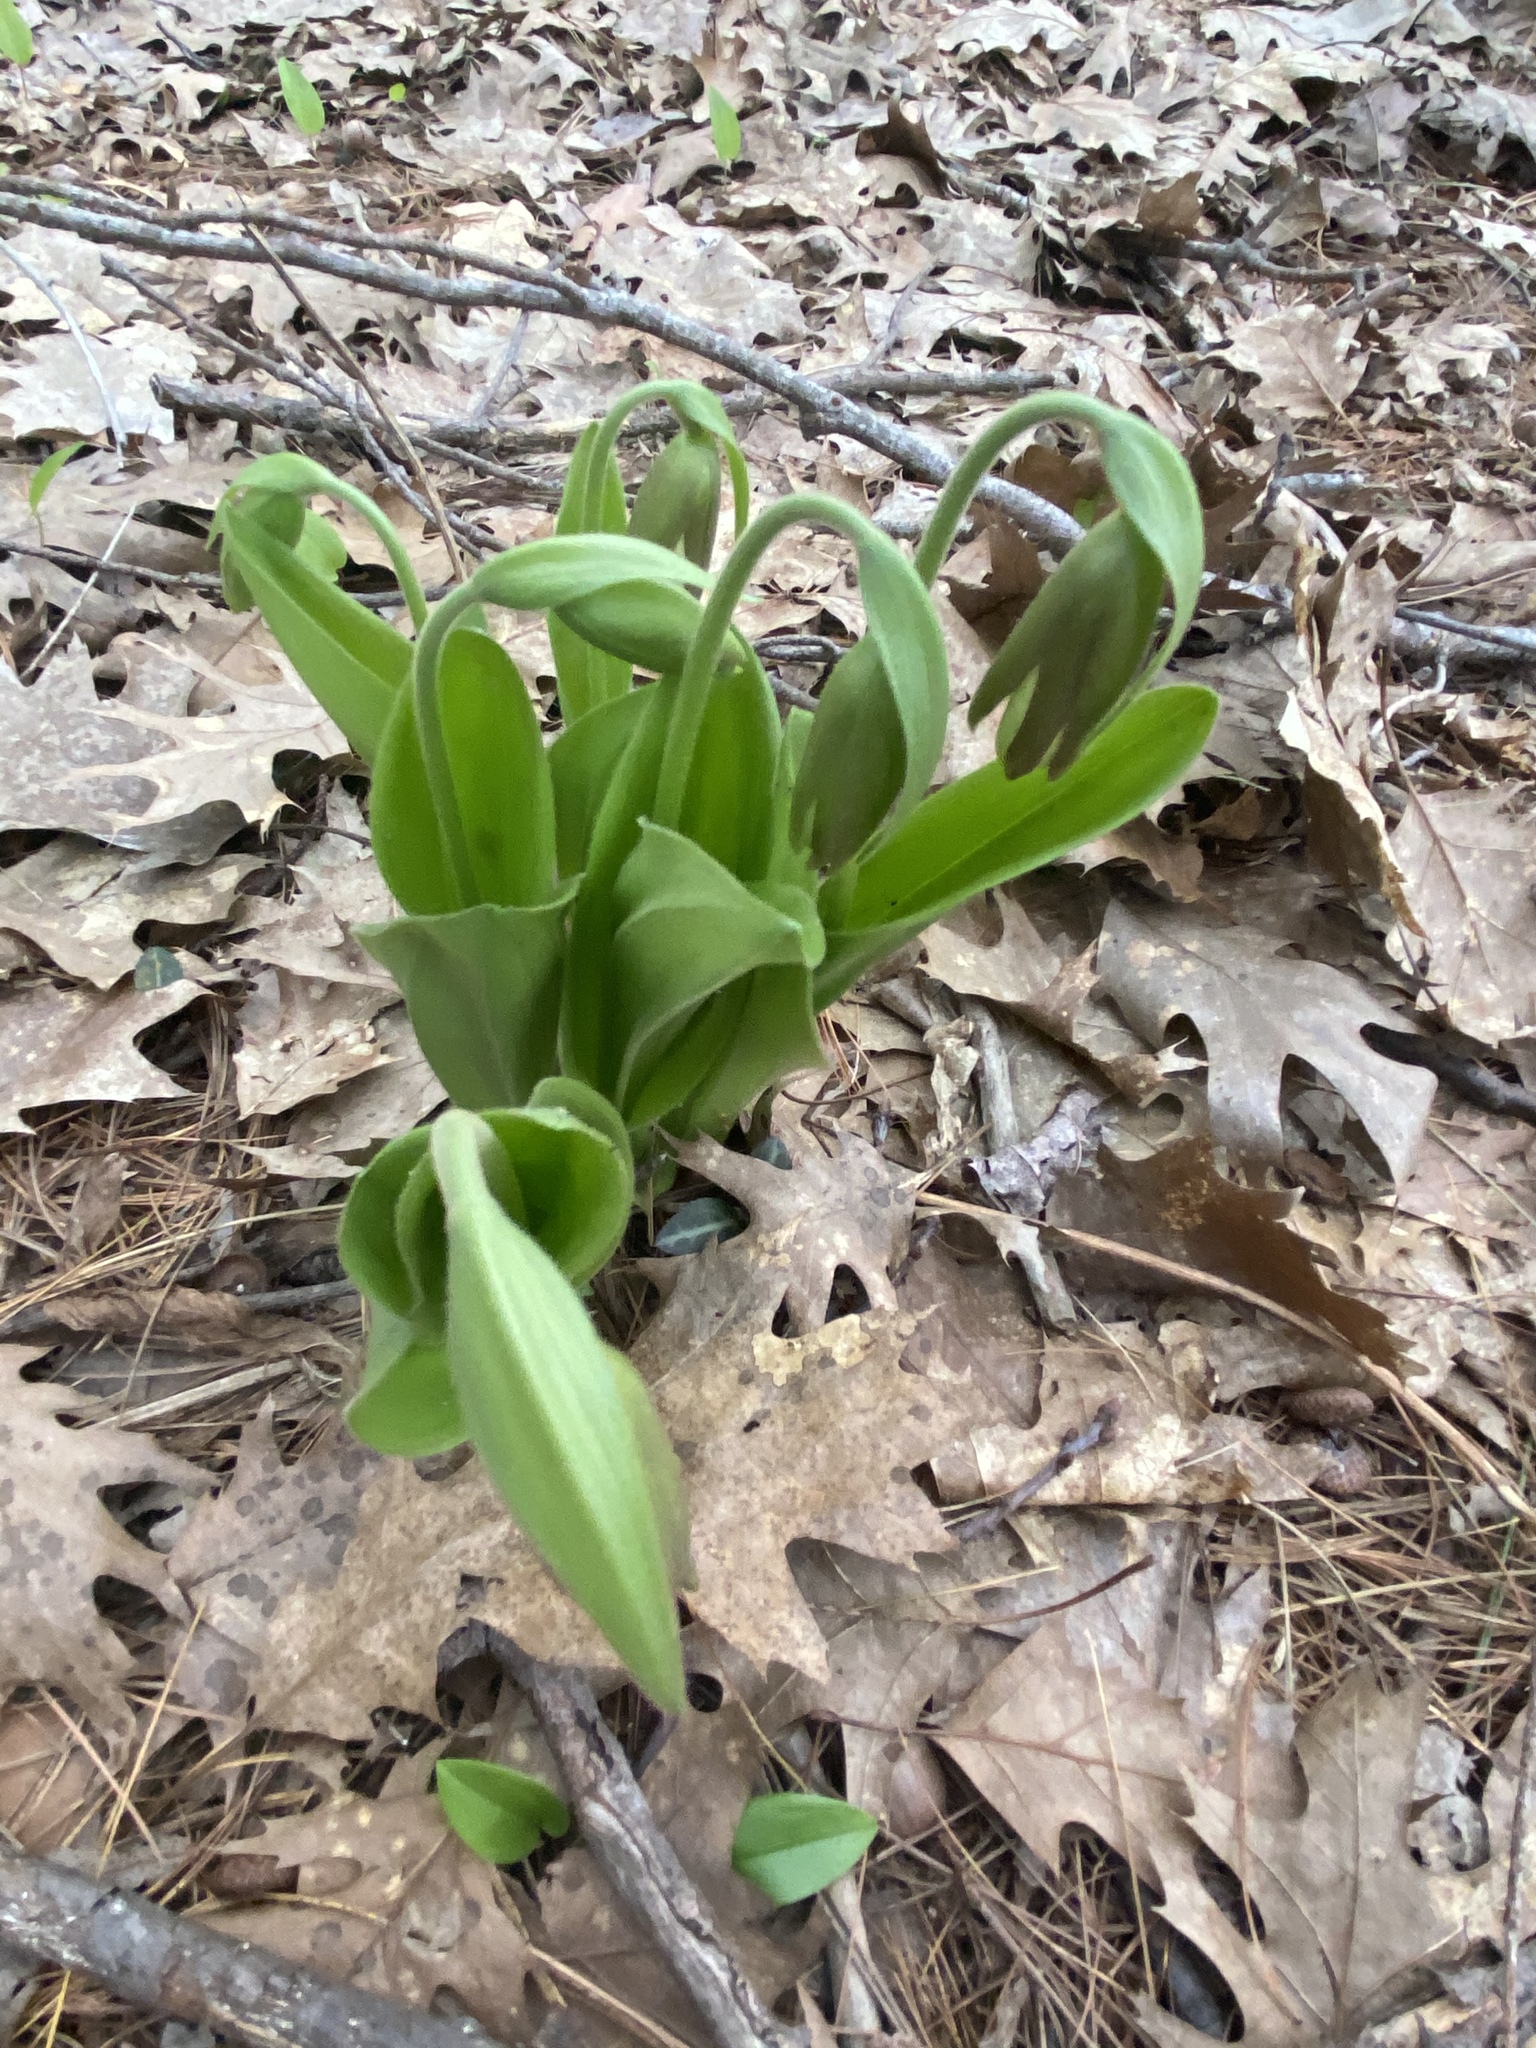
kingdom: Plantae
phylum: Tracheophyta
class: Liliopsida
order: Asparagales
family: Orchidaceae
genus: Cypripedium
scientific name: Cypripedium acaule
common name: Pink lady's-slipper
